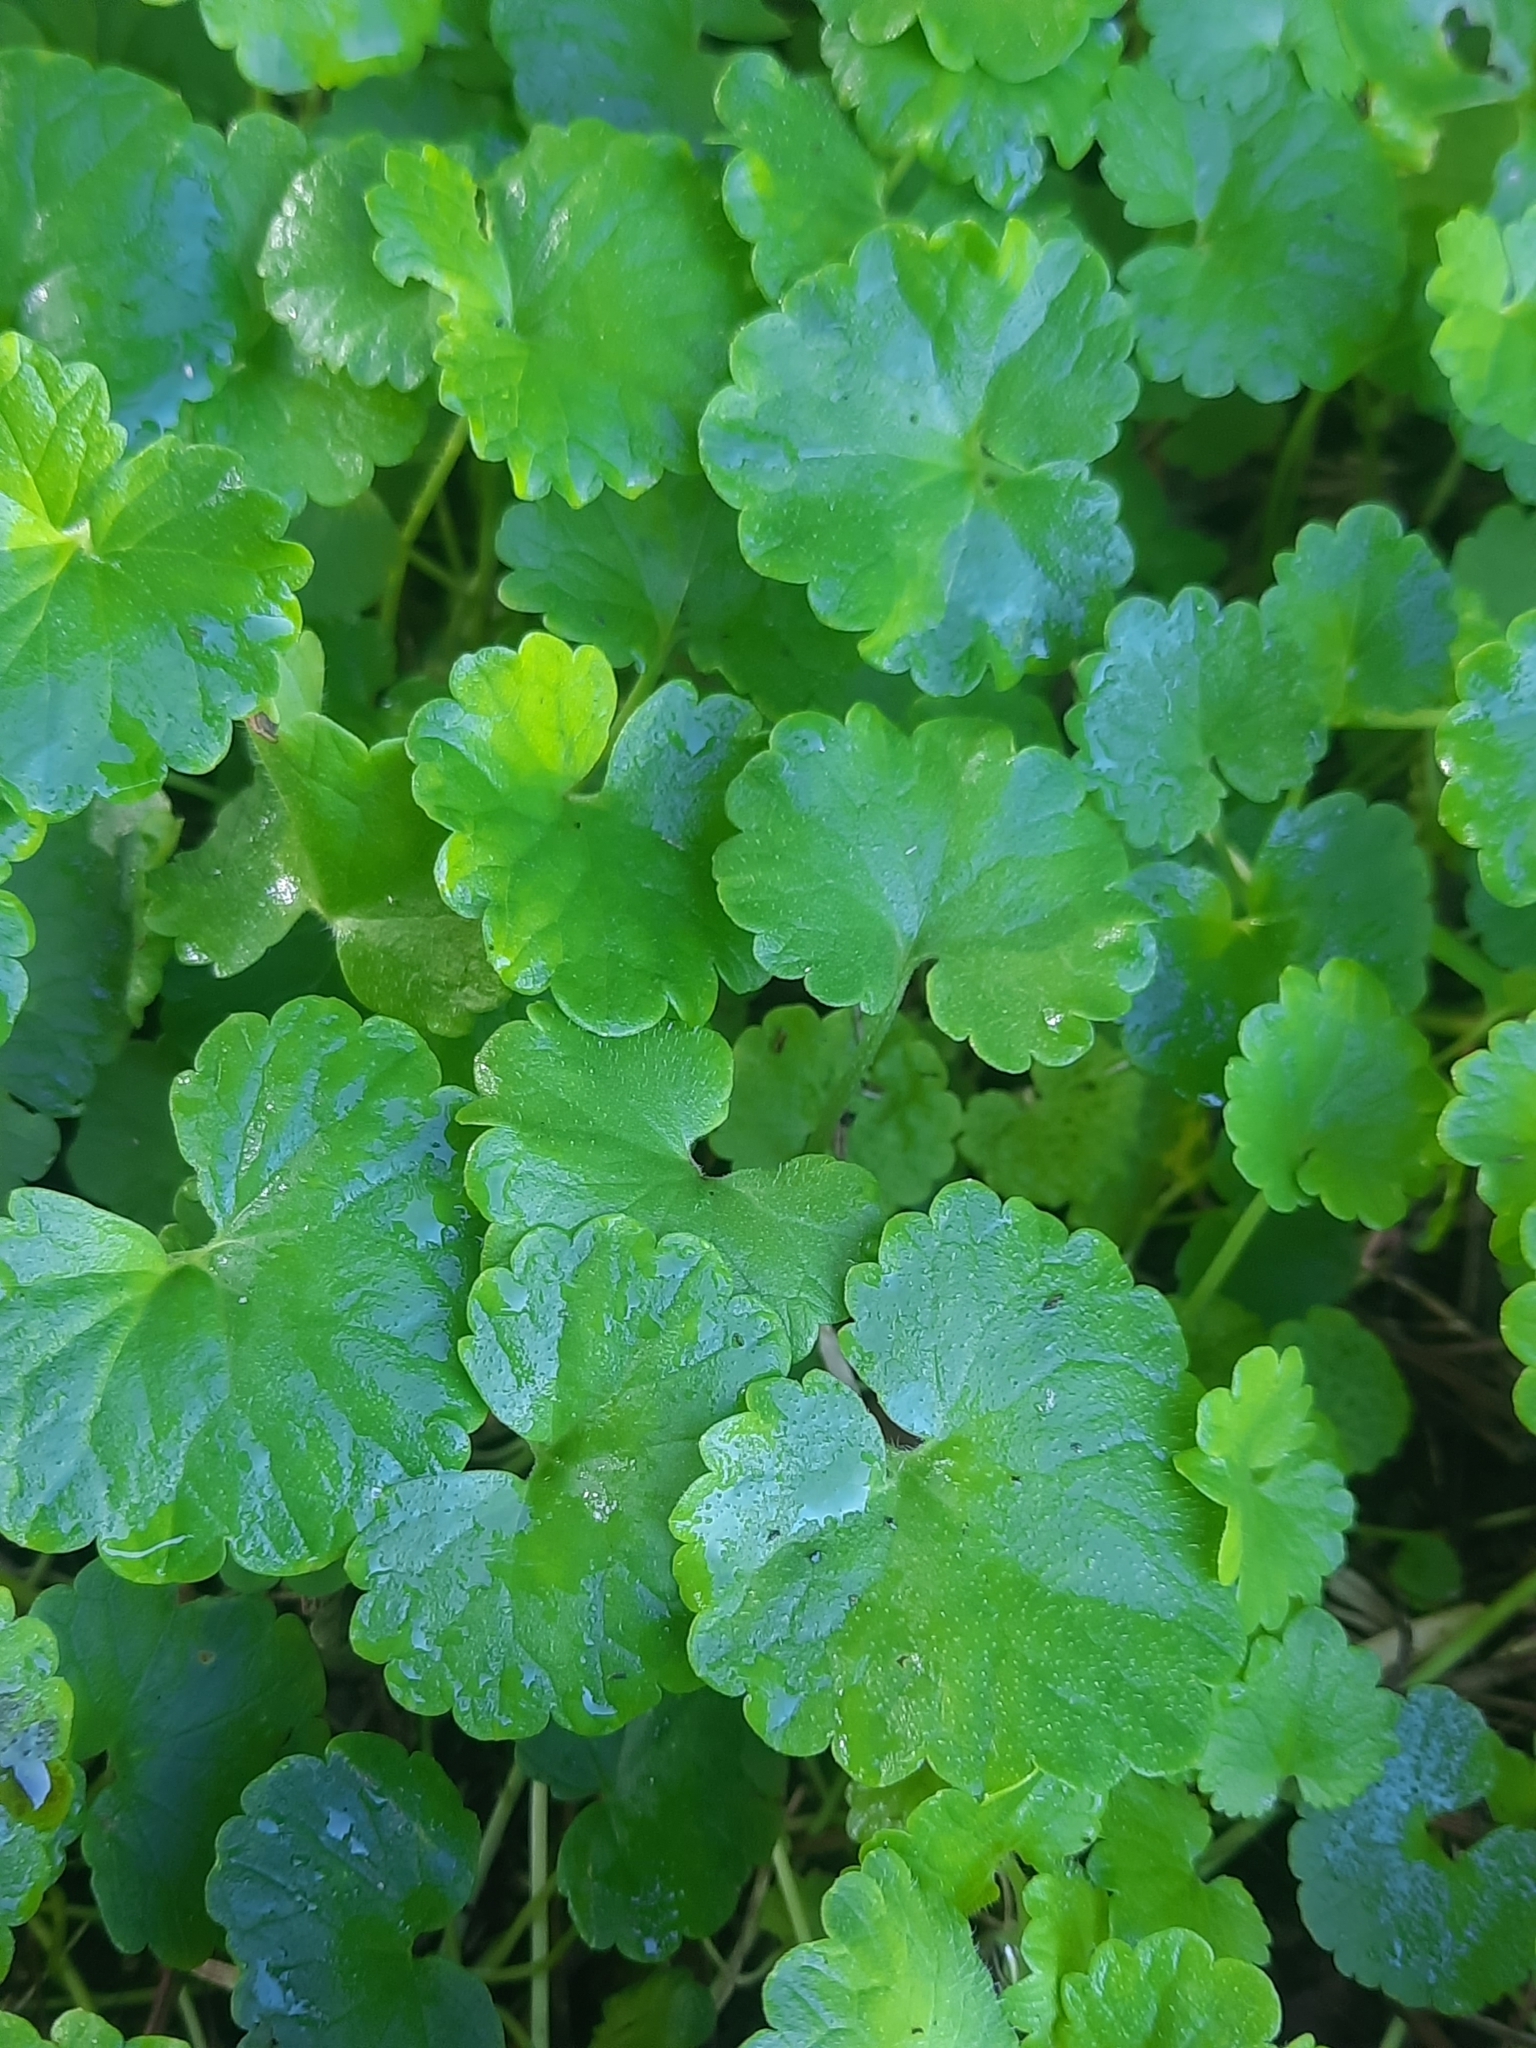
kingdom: Plantae
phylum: Tracheophyta
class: Magnoliopsida
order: Lamiales
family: Lamiaceae
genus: Glechoma
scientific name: Glechoma hederacea
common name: Ground ivy
